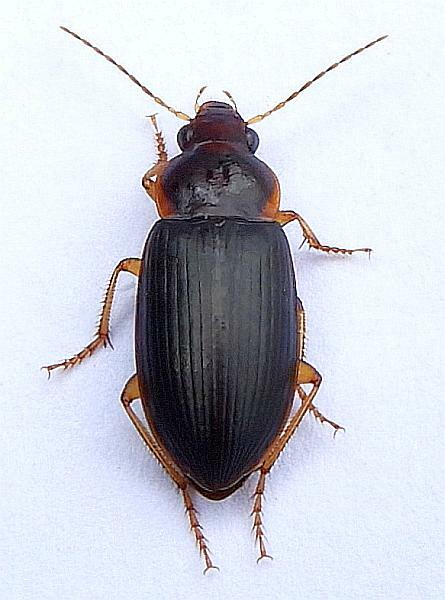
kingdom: Animalia
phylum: Arthropoda
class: Insecta
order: Coleoptera
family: Carabidae
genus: Notiobia
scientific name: Notiobia terminata
